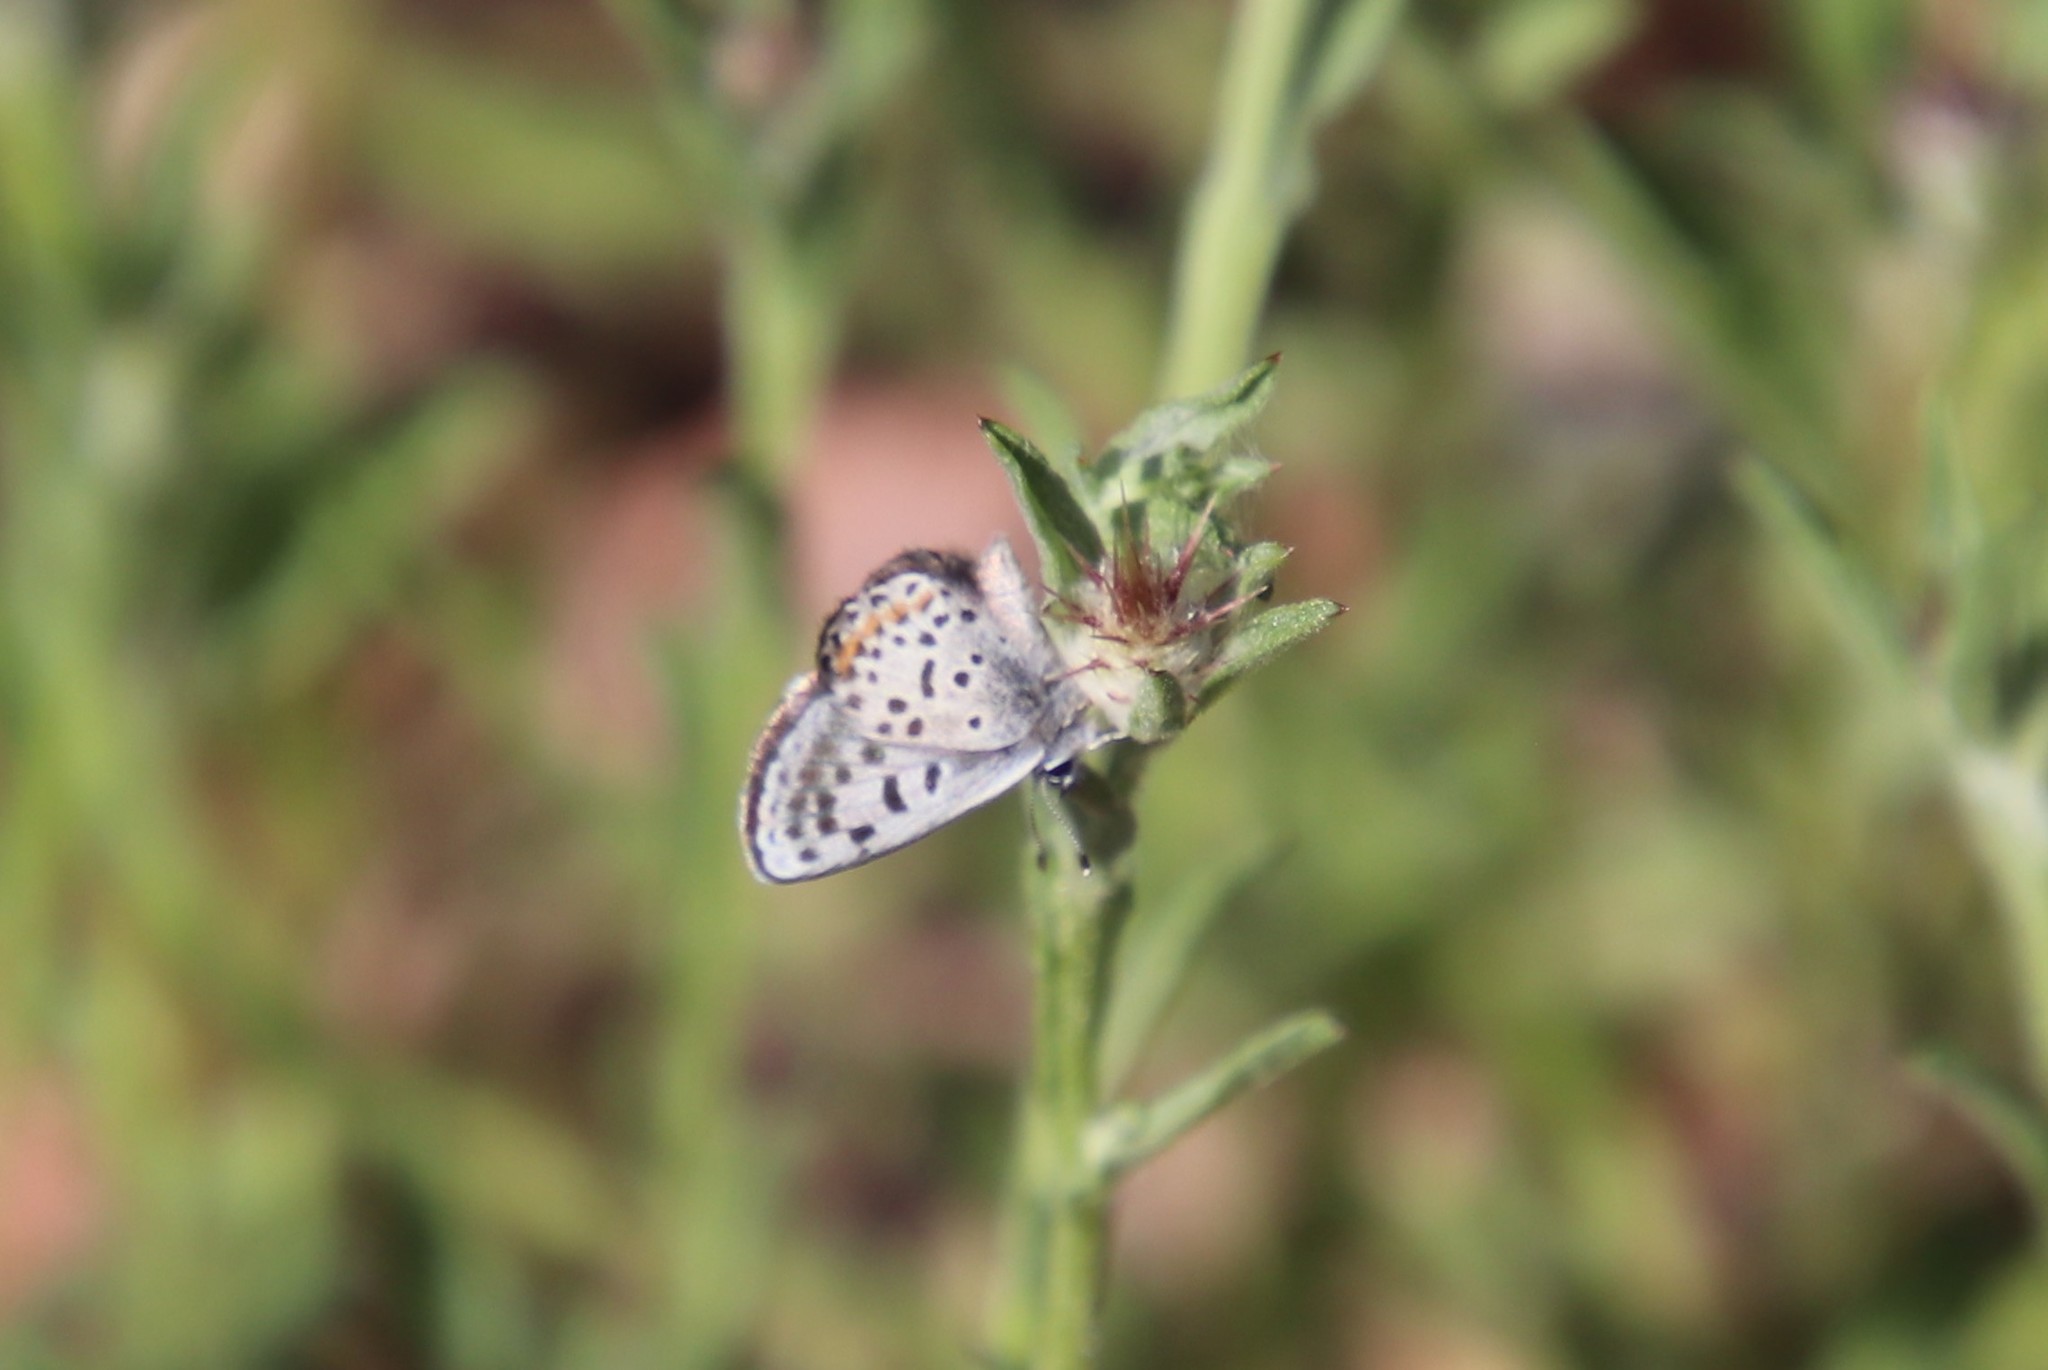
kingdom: Animalia
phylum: Arthropoda
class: Insecta
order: Lepidoptera
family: Lycaenidae
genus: Philotes
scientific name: Philotes bernardino
